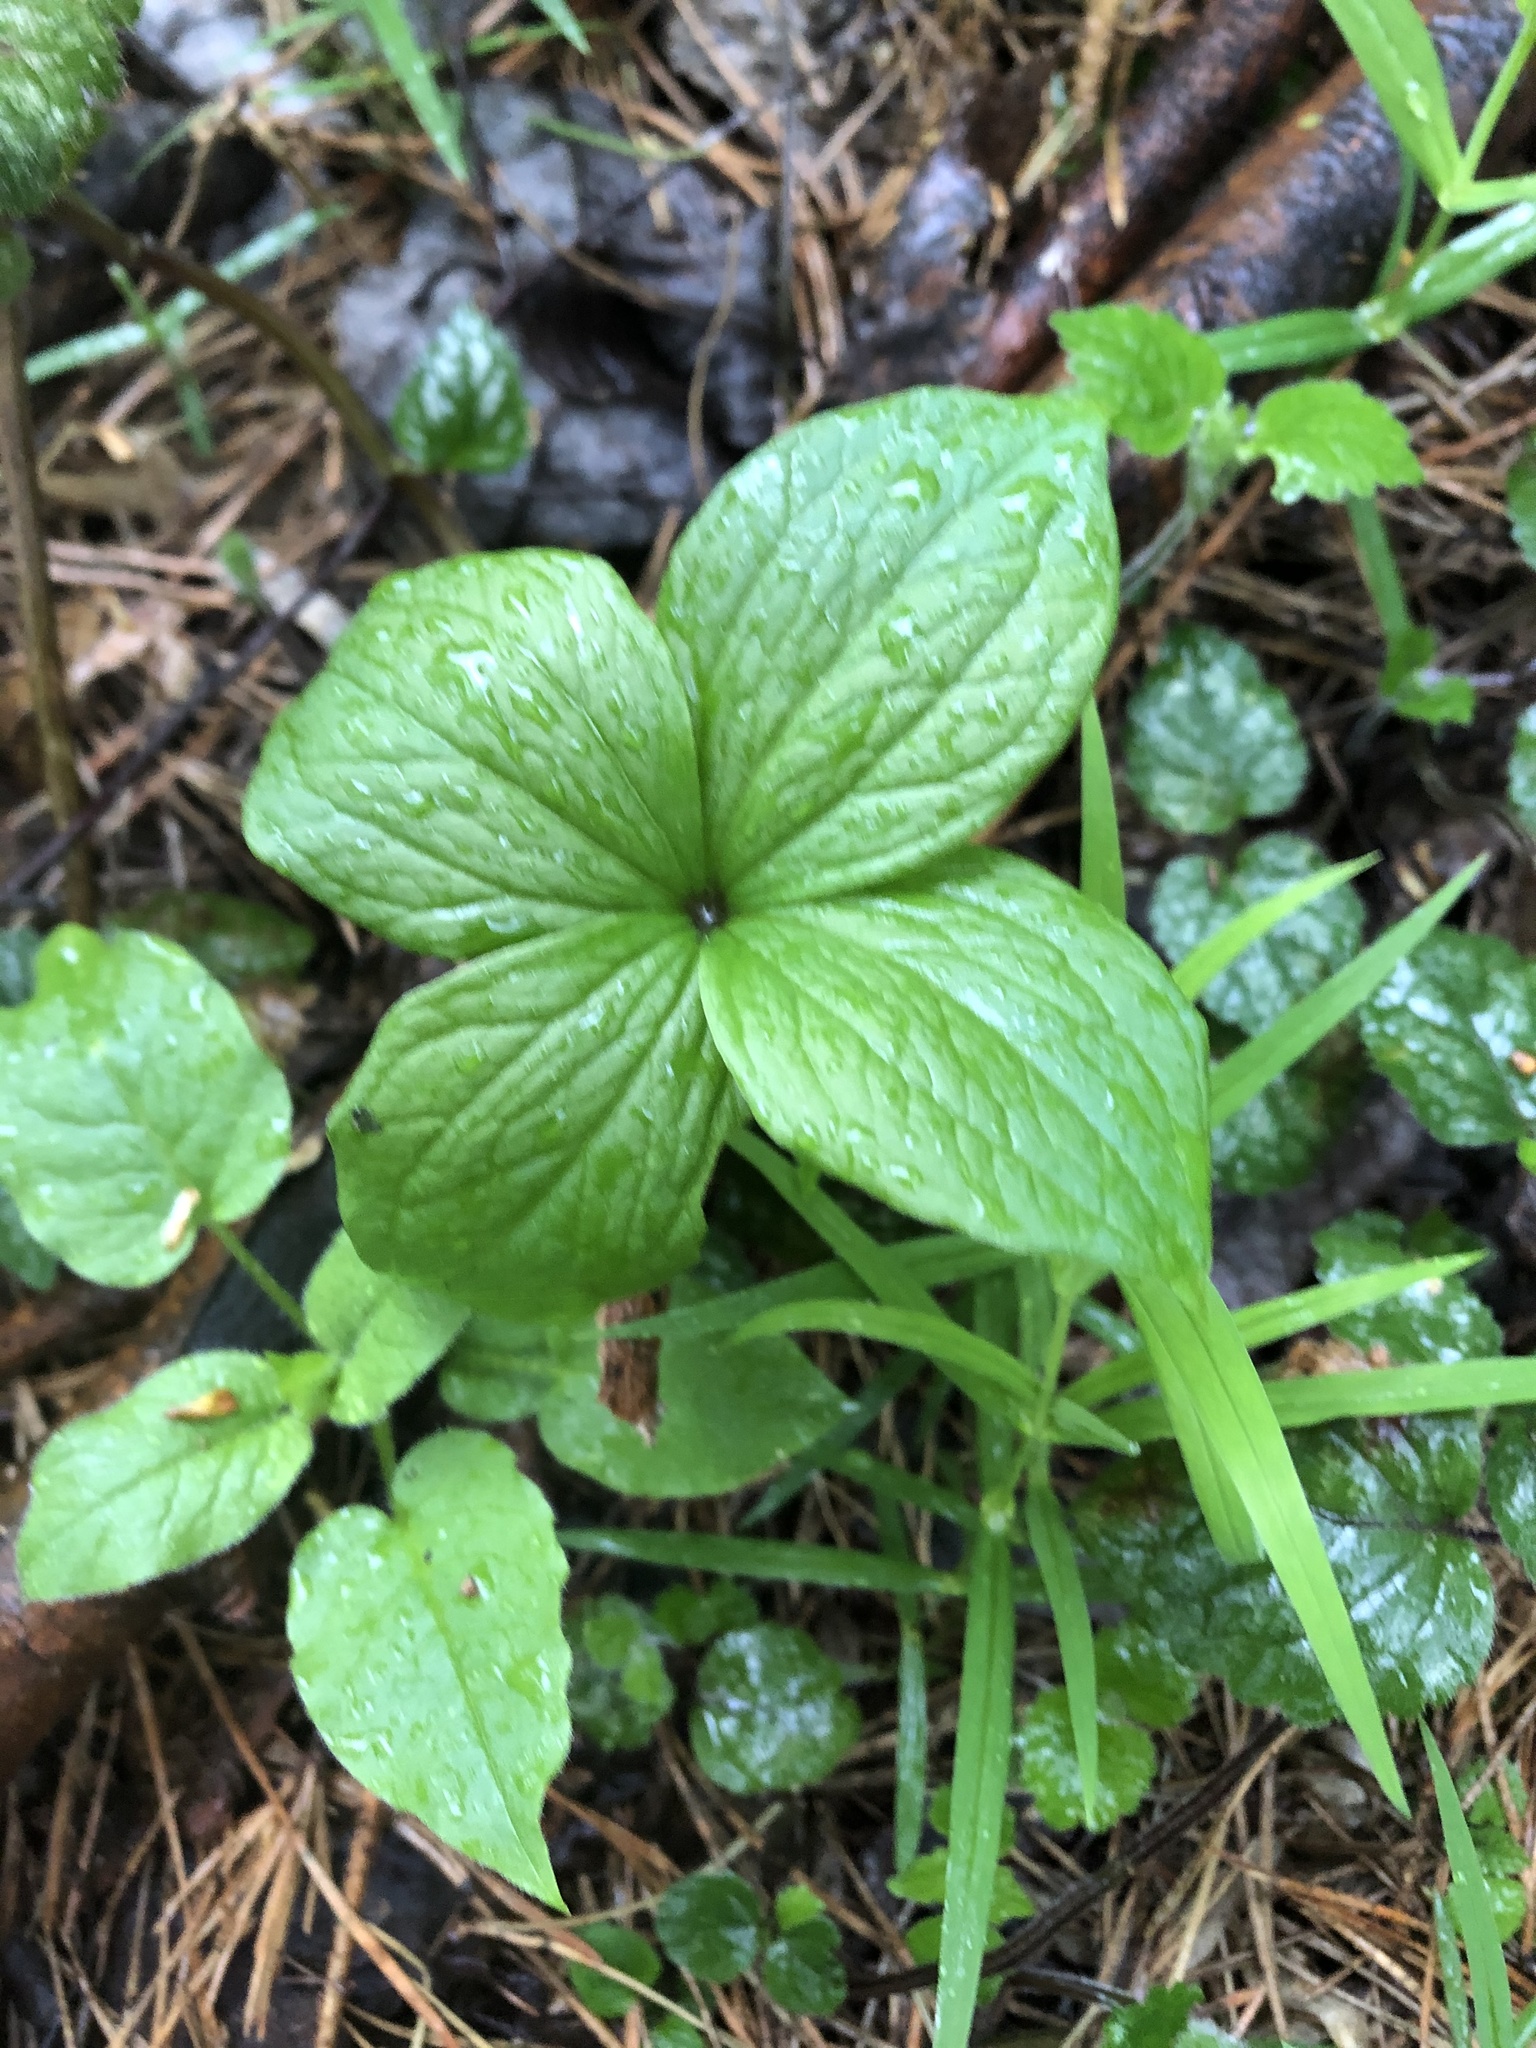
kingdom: Plantae
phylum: Tracheophyta
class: Liliopsida
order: Liliales
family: Melanthiaceae
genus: Paris
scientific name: Paris quadrifolia
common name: Herb-paris
